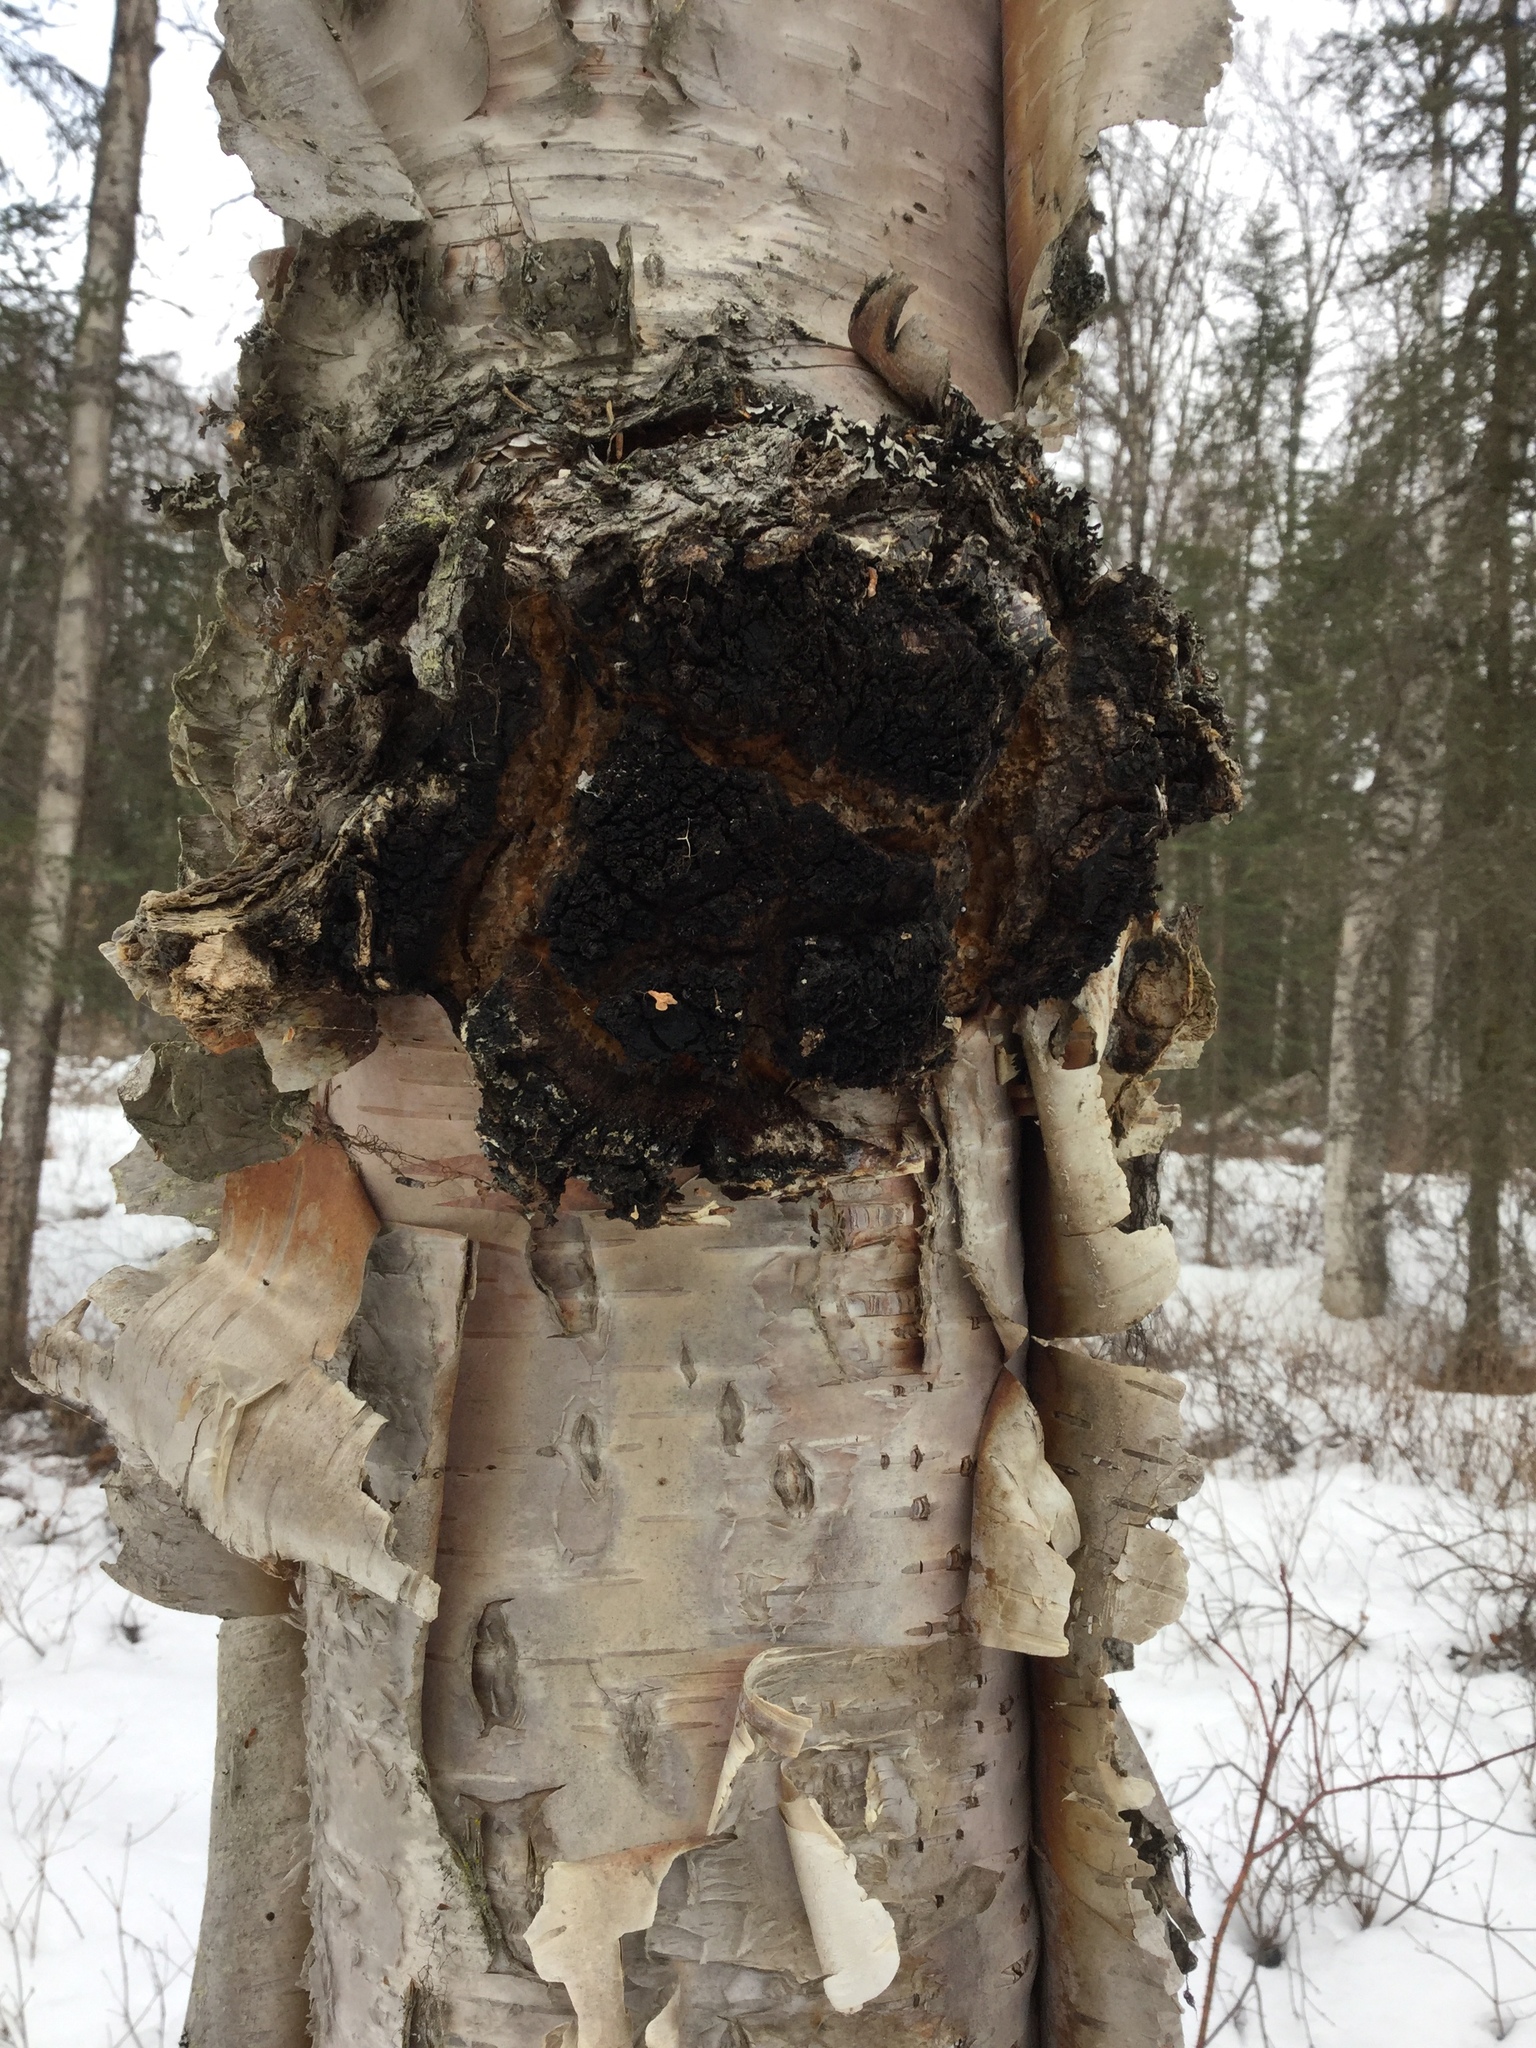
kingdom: Fungi
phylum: Basidiomycota
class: Agaricomycetes
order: Hymenochaetales
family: Hymenochaetaceae
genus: Inonotus
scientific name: Inonotus obliquus
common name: Chaga
